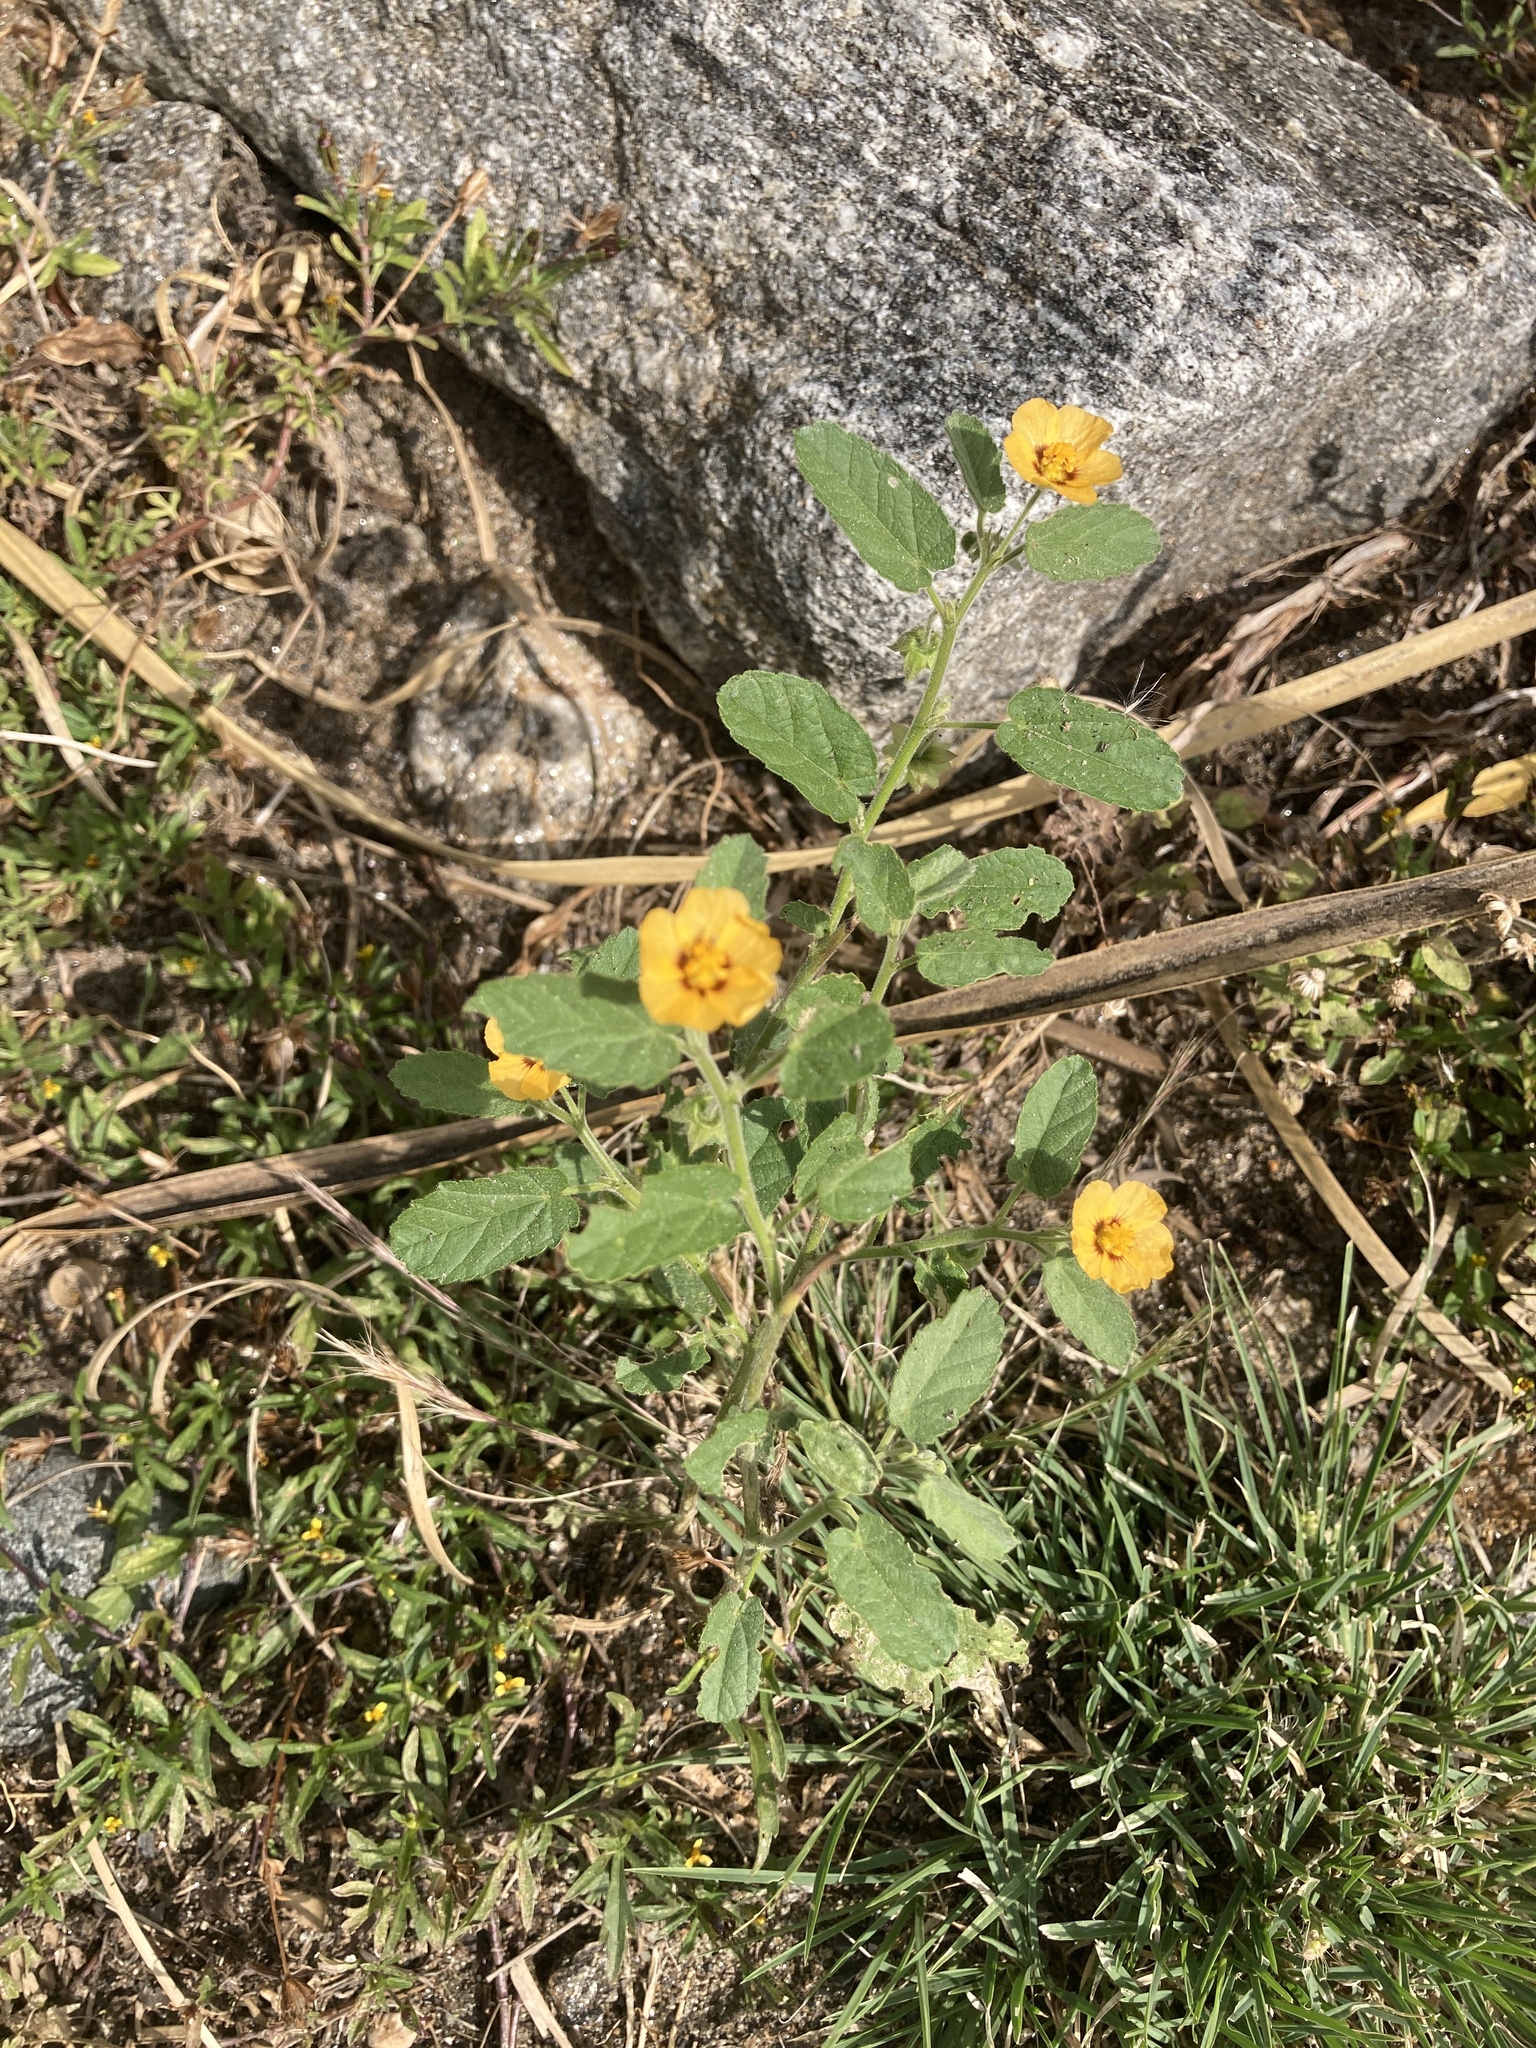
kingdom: Plantae
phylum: Tracheophyta
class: Magnoliopsida
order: Malvales
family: Malvaceae
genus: Gaya
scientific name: Gaya parviflora
